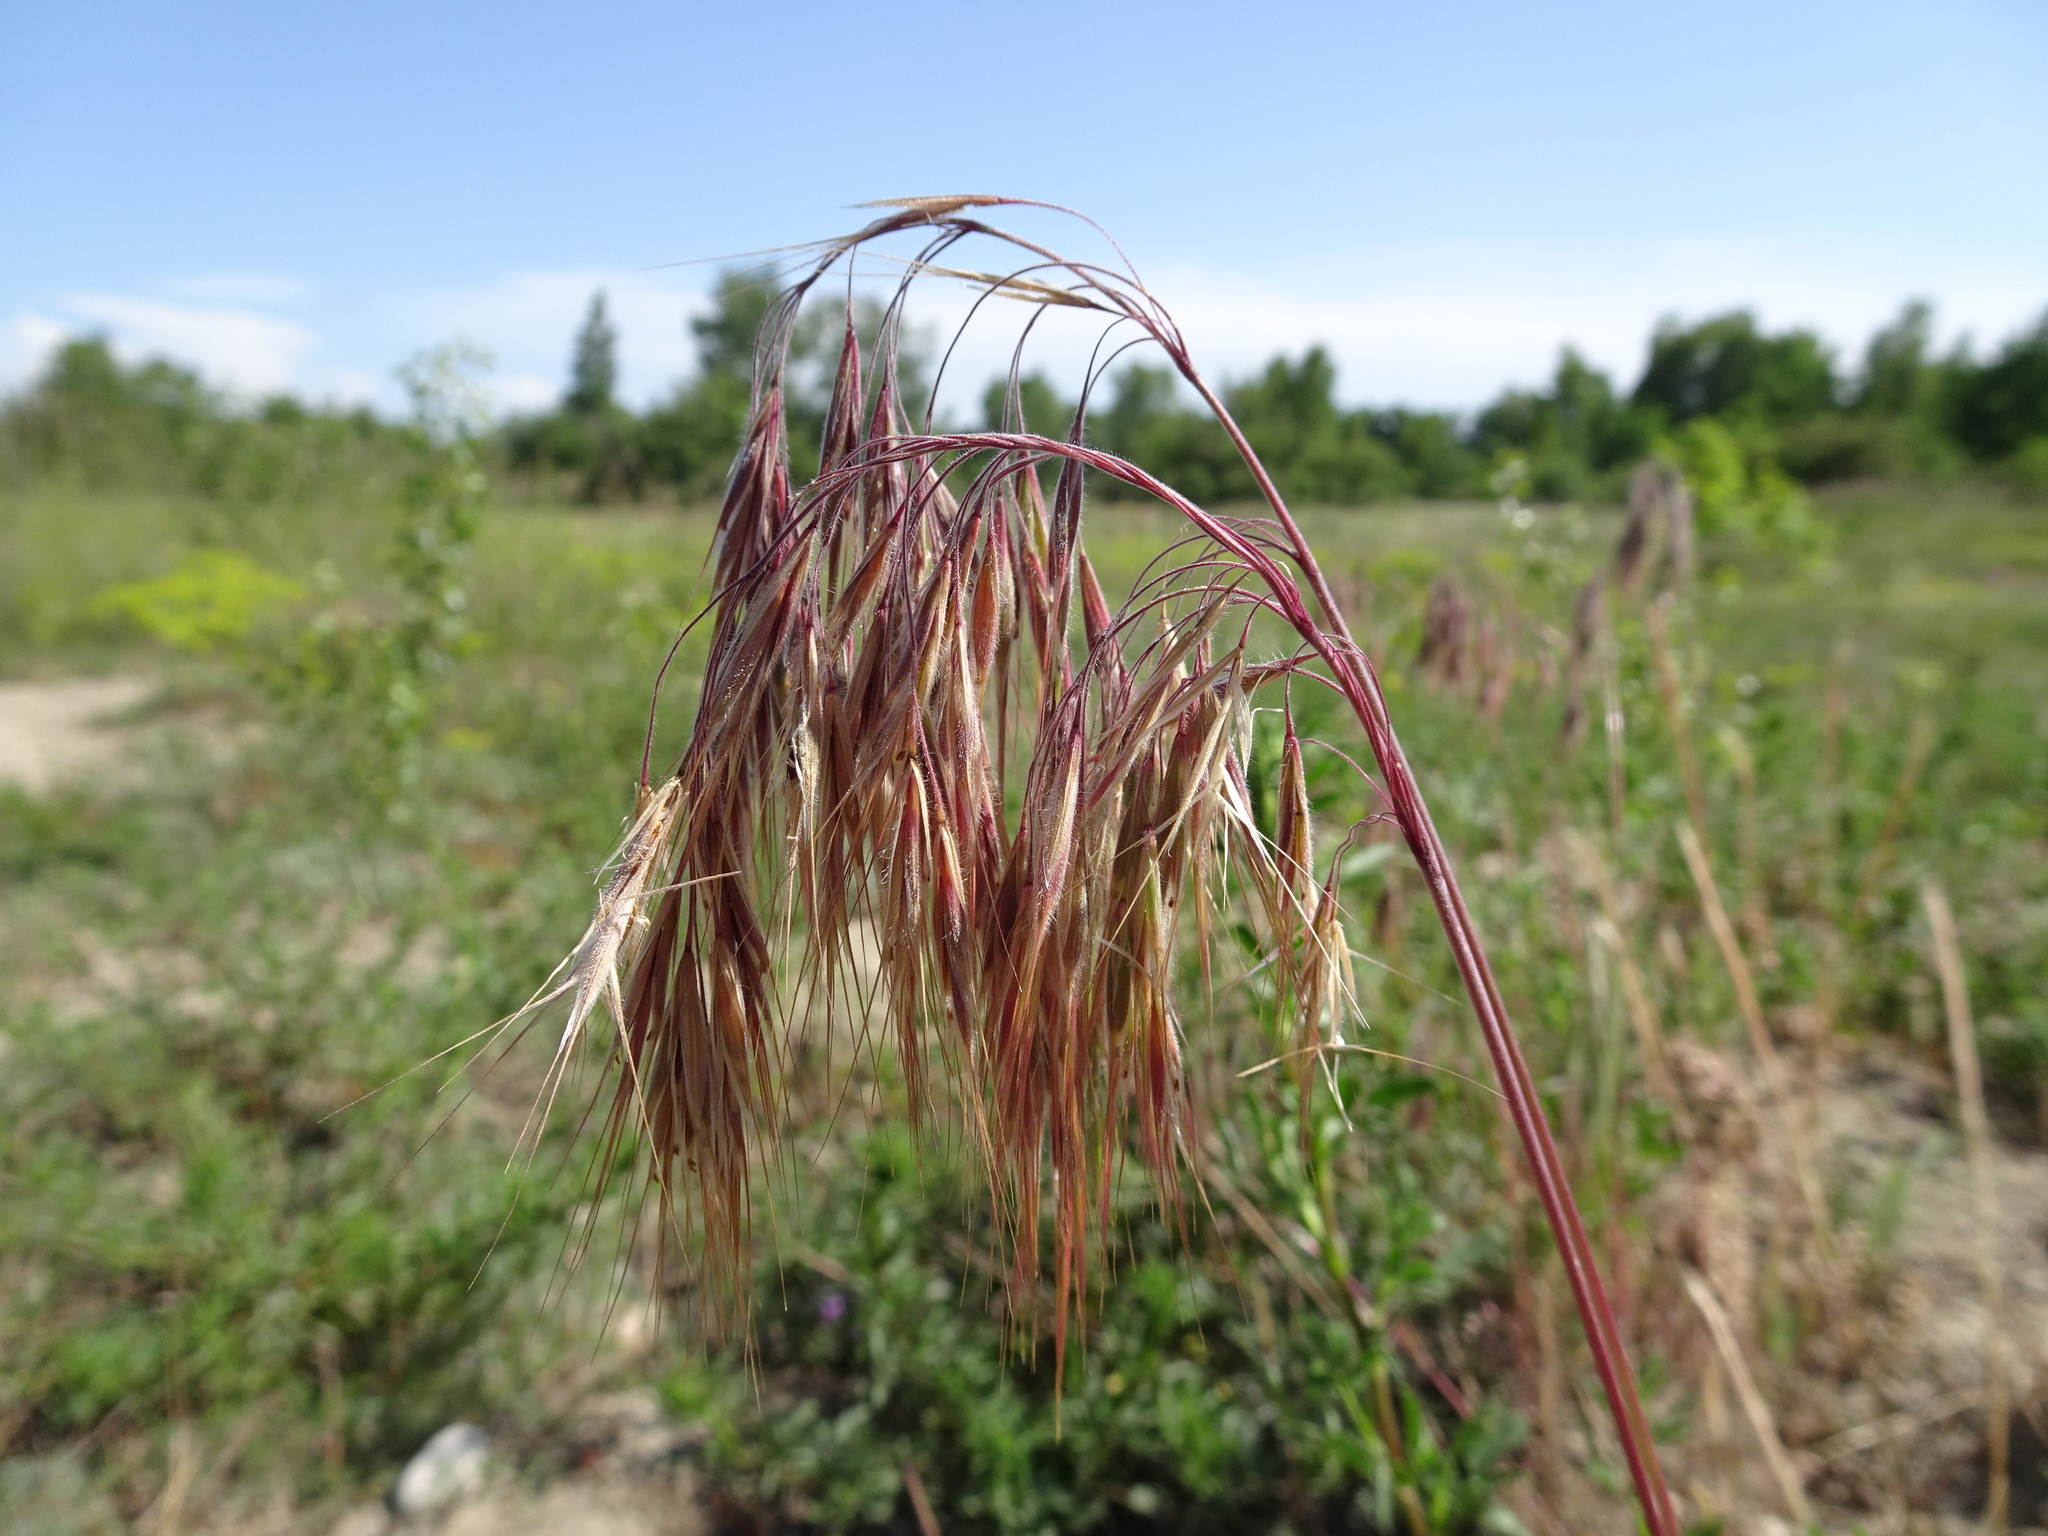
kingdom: Plantae
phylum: Tracheophyta
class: Liliopsida
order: Poales
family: Poaceae
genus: Bromus
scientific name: Bromus tectorum
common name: Cheatgrass
